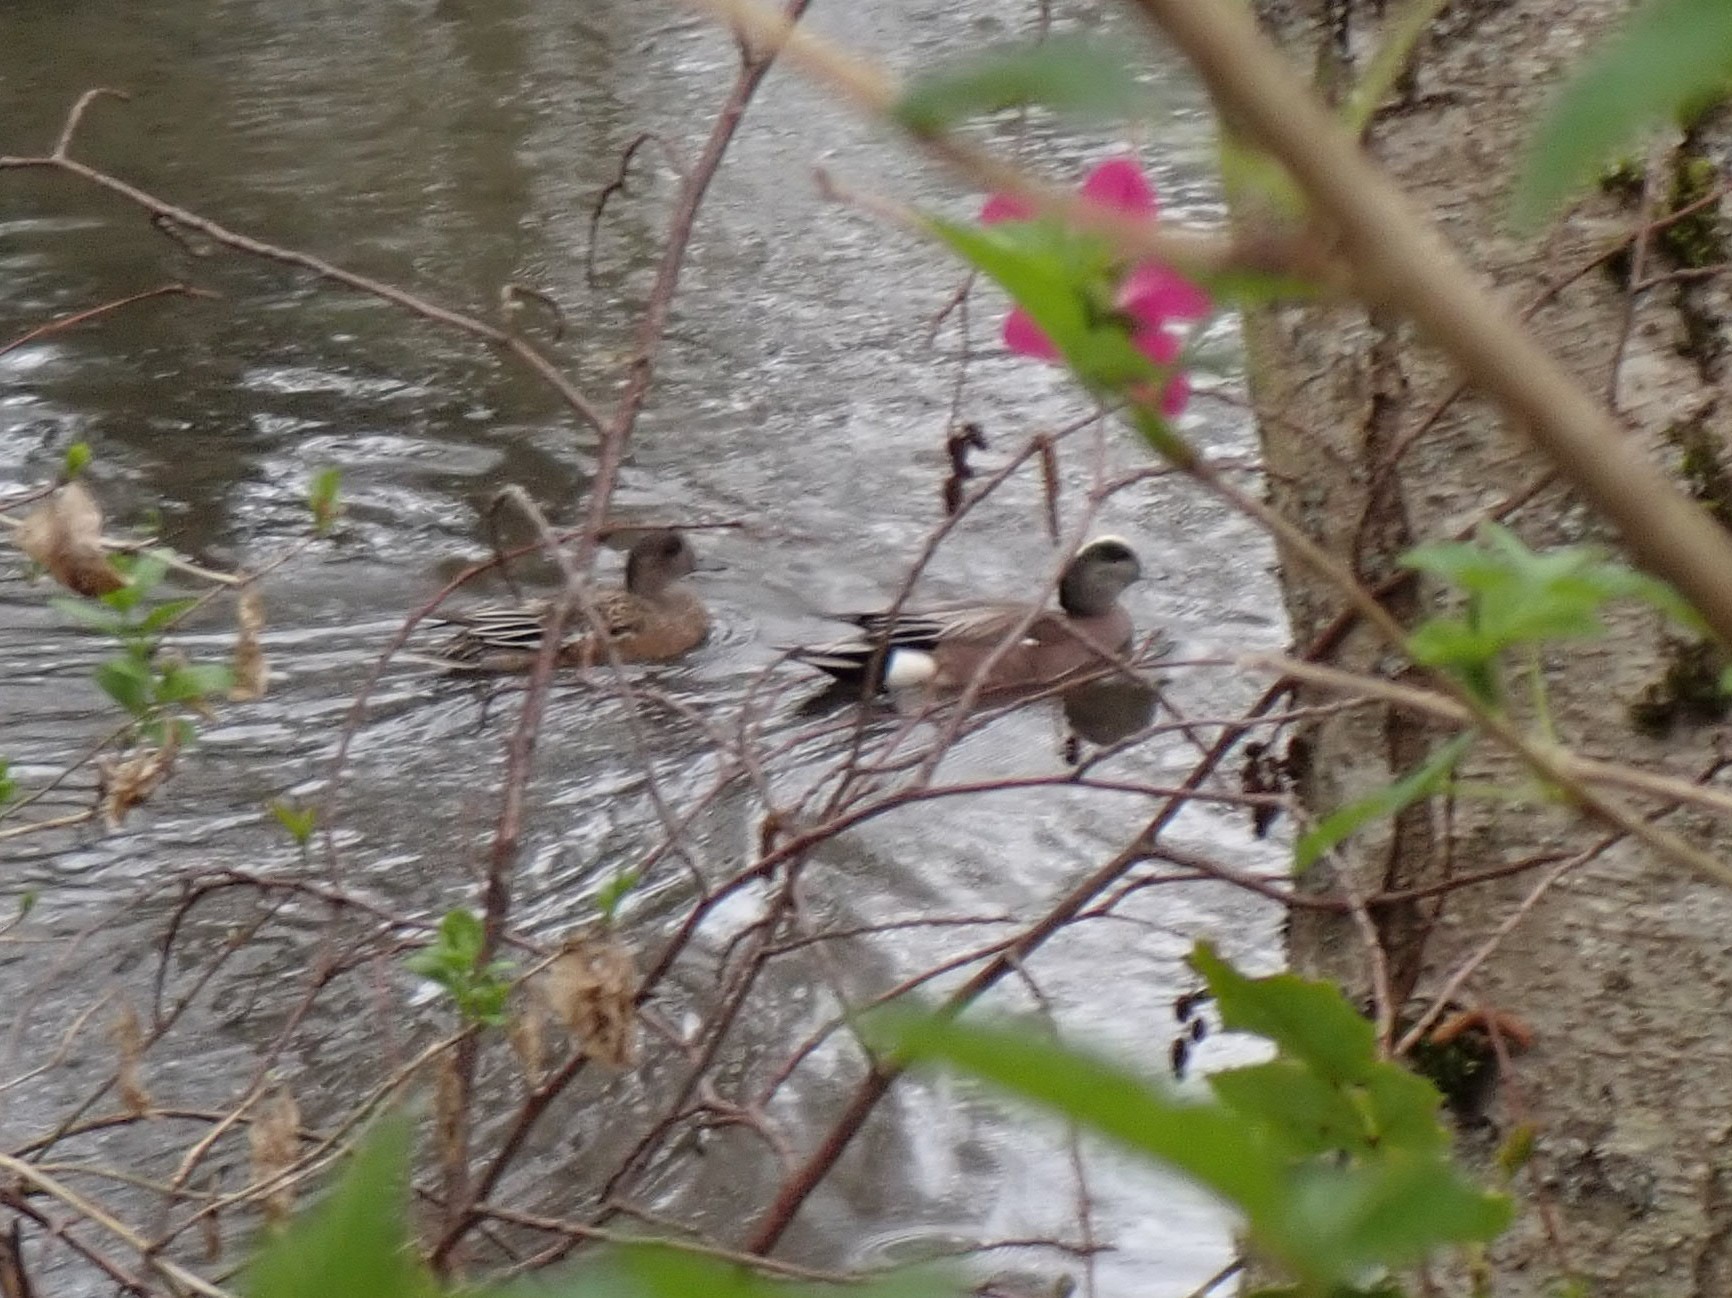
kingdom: Animalia
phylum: Chordata
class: Aves
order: Anseriformes
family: Anatidae
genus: Mareca
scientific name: Mareca americana
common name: American wigeon
